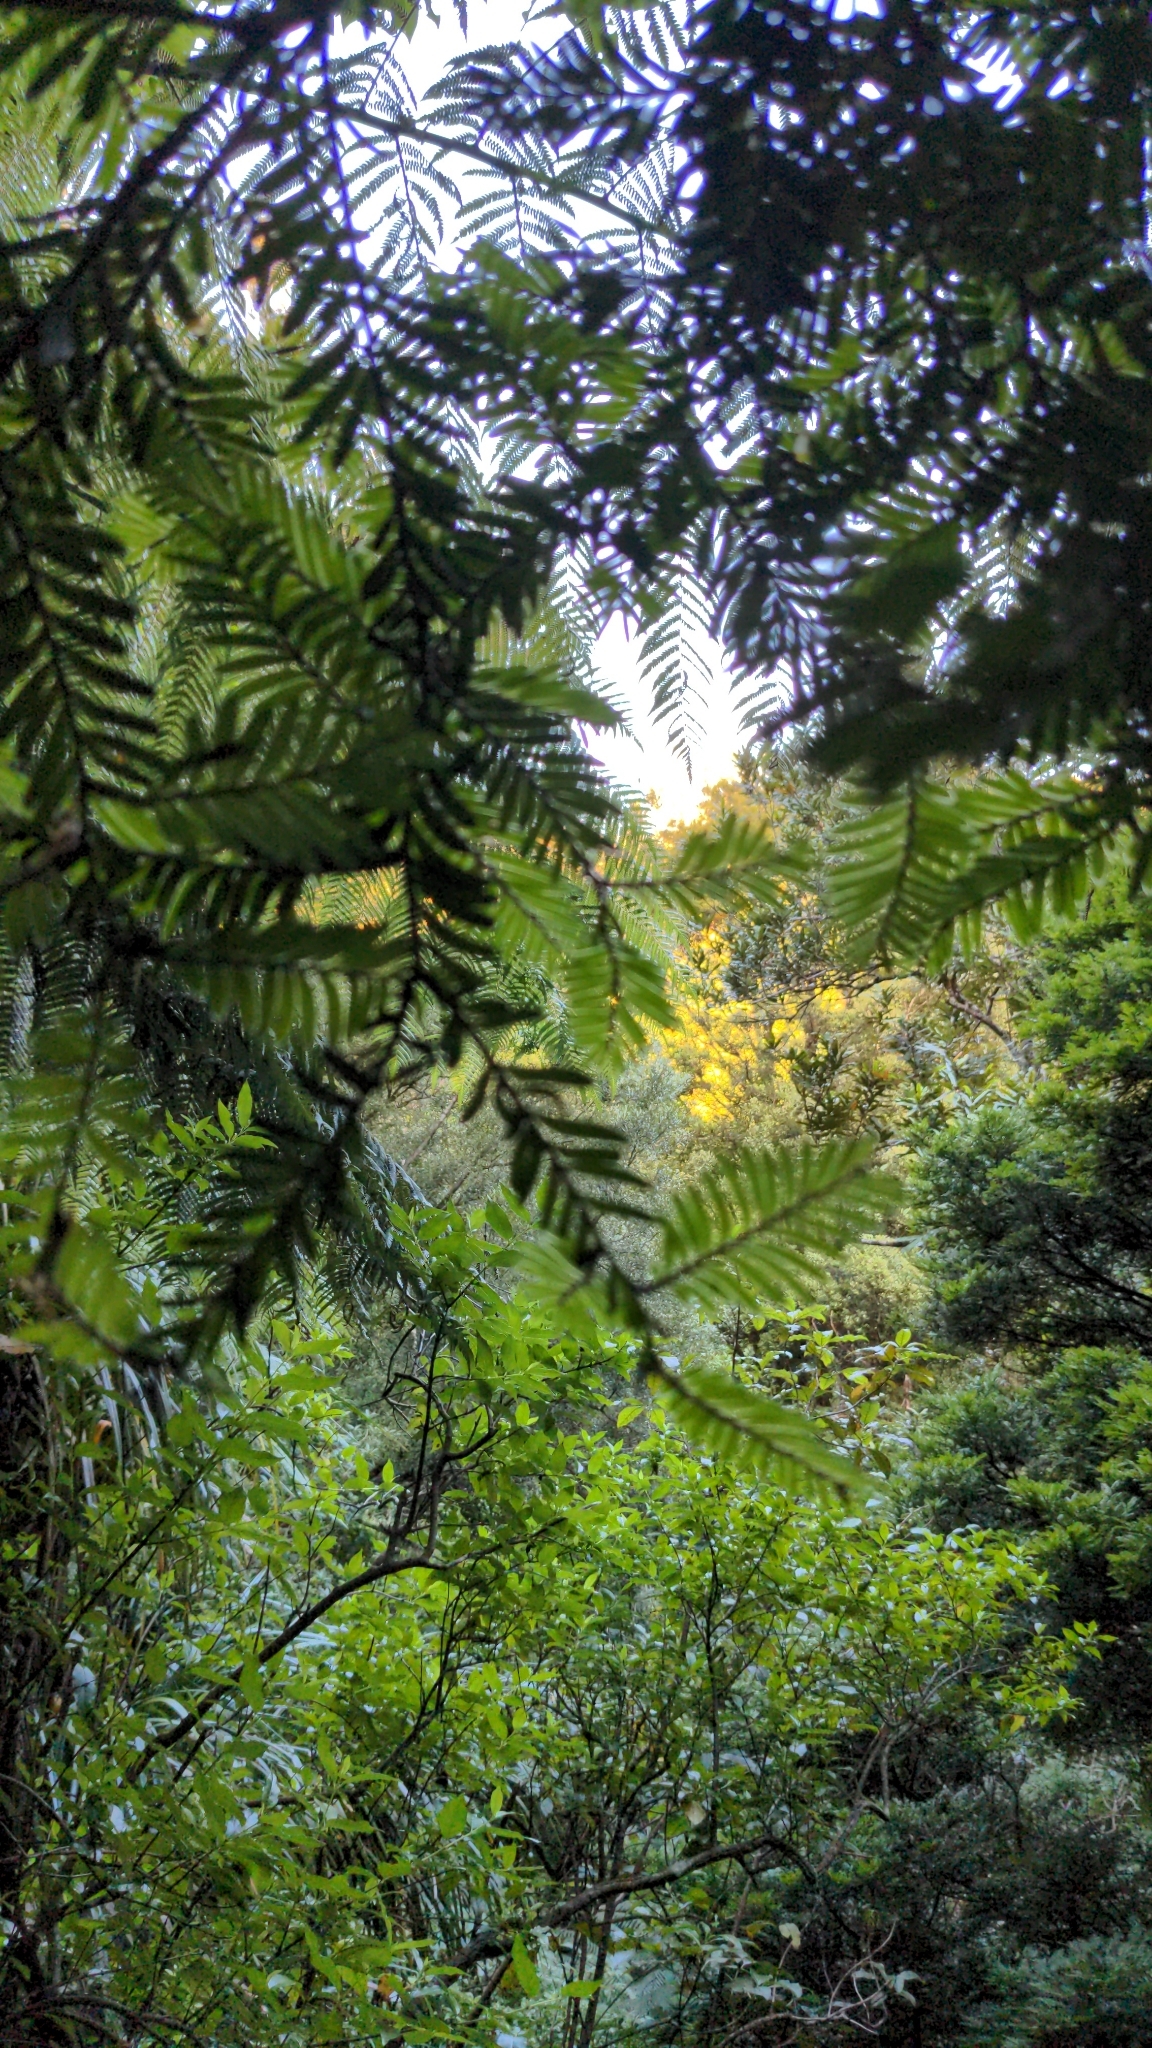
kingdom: Plantae
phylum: Tracheophyta
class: Pinopsida
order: Pinales
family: Podocarpaceae
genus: Prumnopitys
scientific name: Prumnopitys ferruginea
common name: Brown pine
